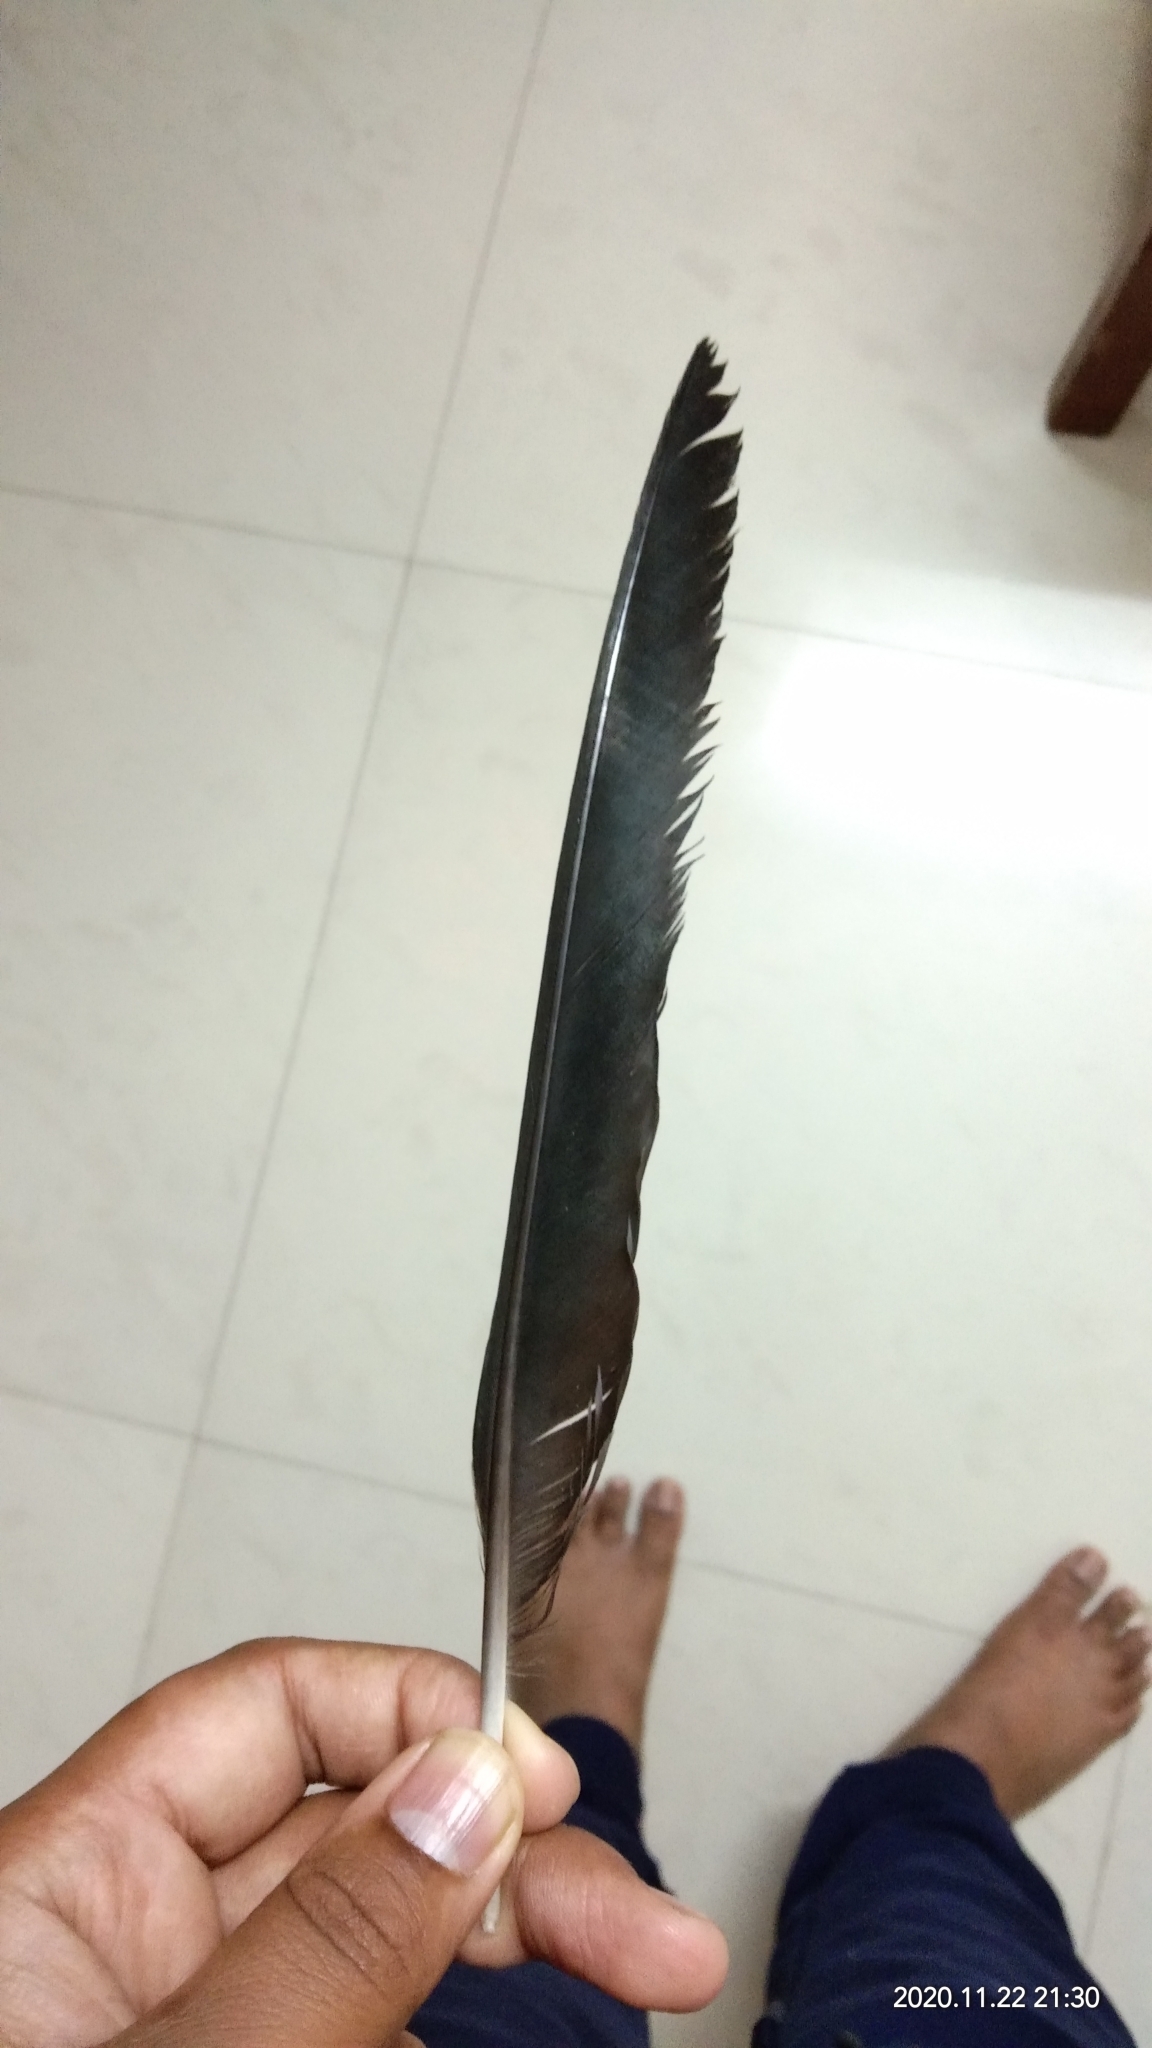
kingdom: Animalia
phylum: Chordata
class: Aves
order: Passeriformes
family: Corvidae
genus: Corvus
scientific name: Corvus splendens
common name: House crow
